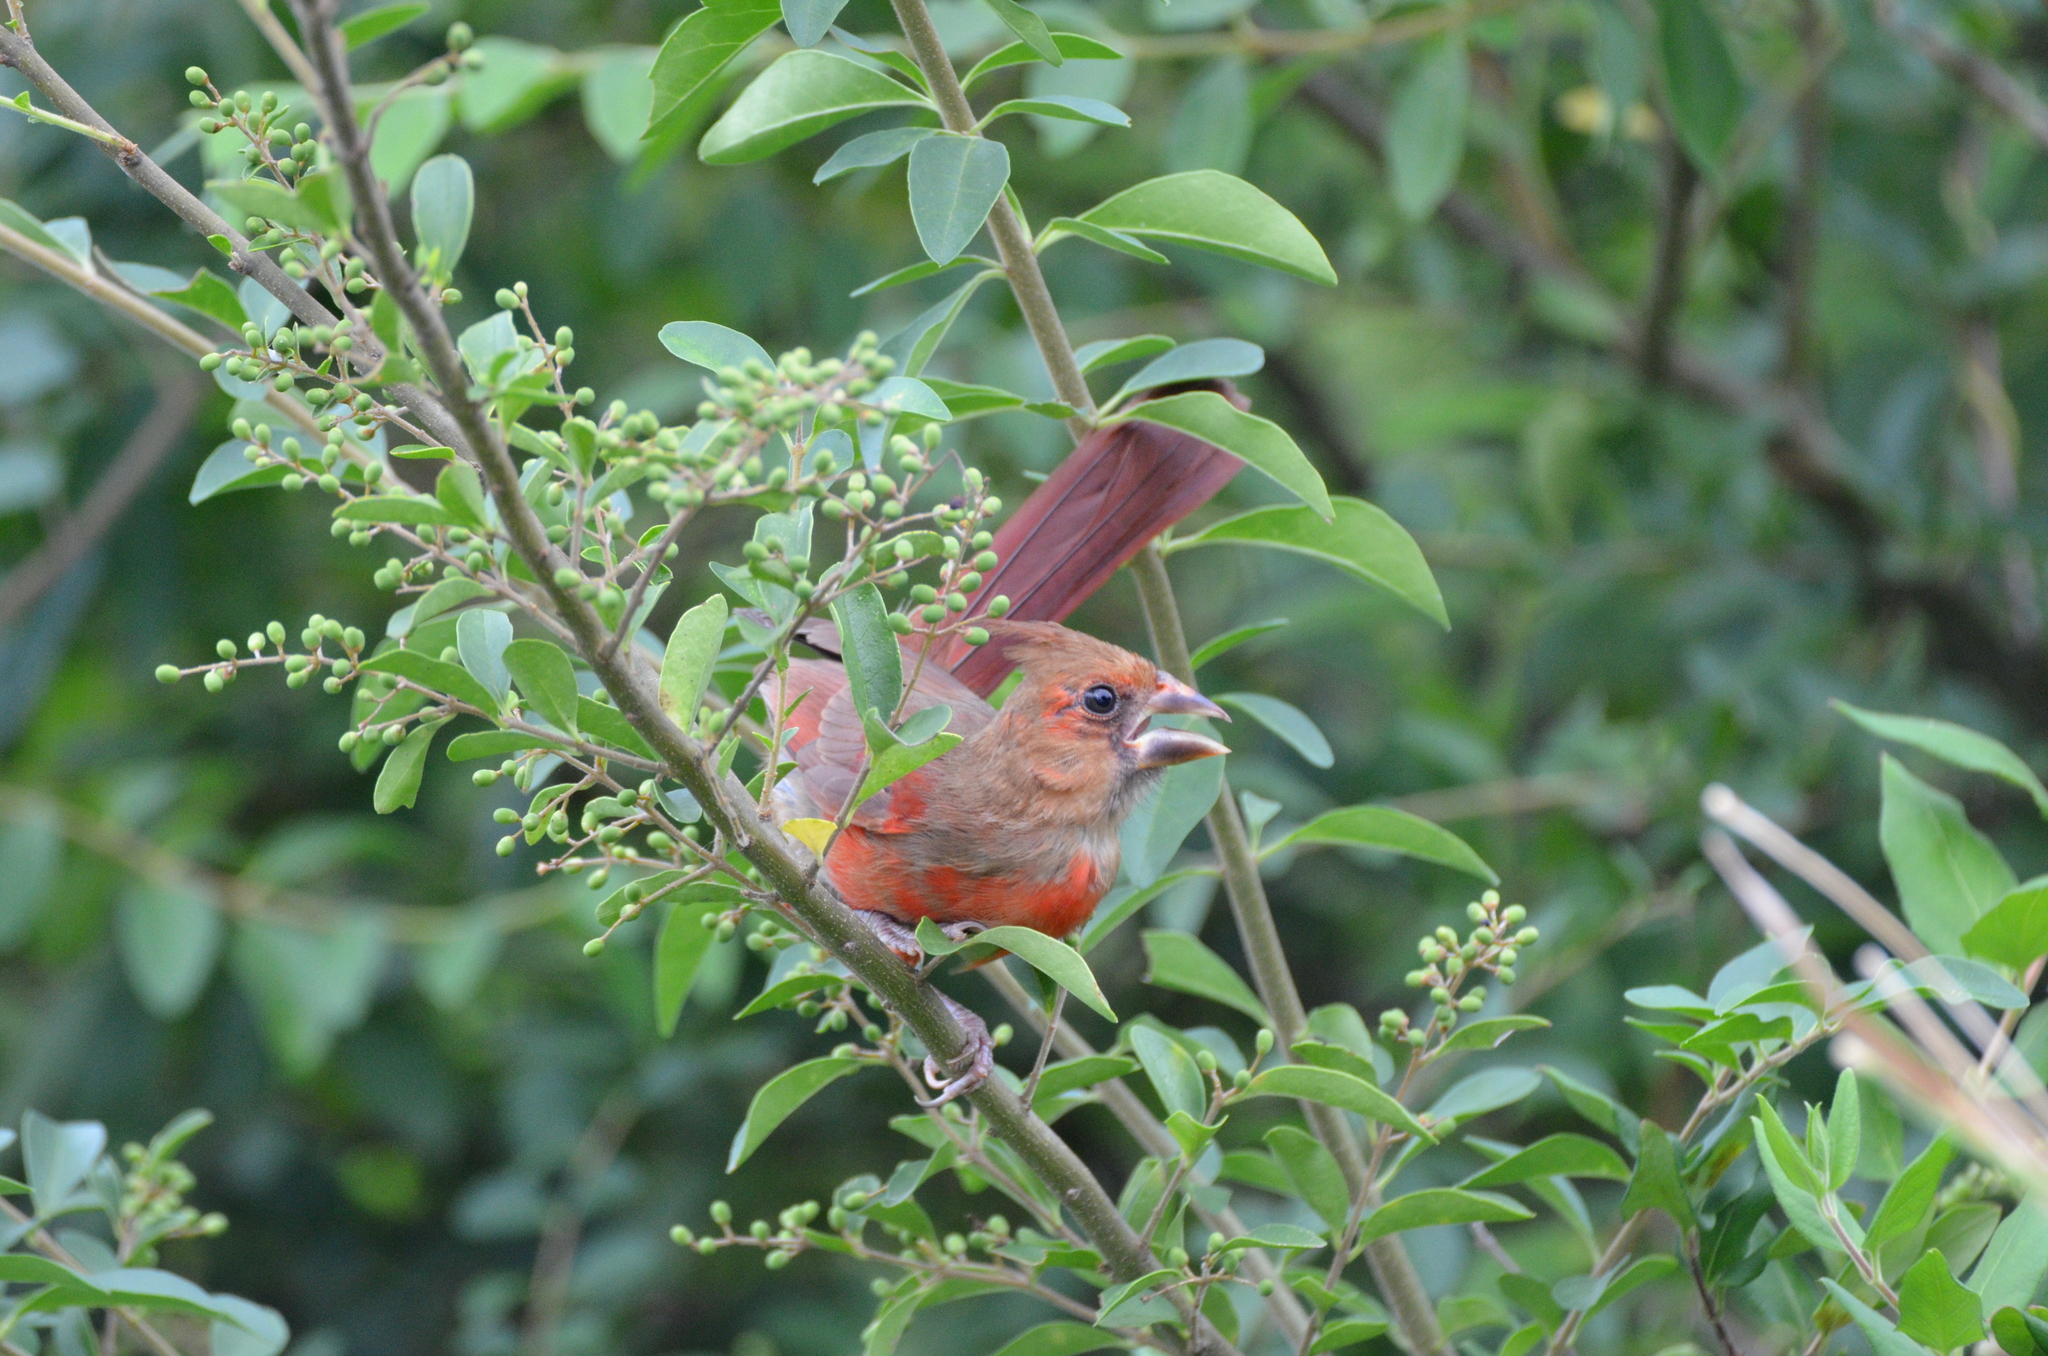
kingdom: Animalia
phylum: Chordata
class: Aves
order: Passeriformes
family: Cardinalidae
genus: Cardinalis
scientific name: Cardinalis cardinalis
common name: Northern cardinal
